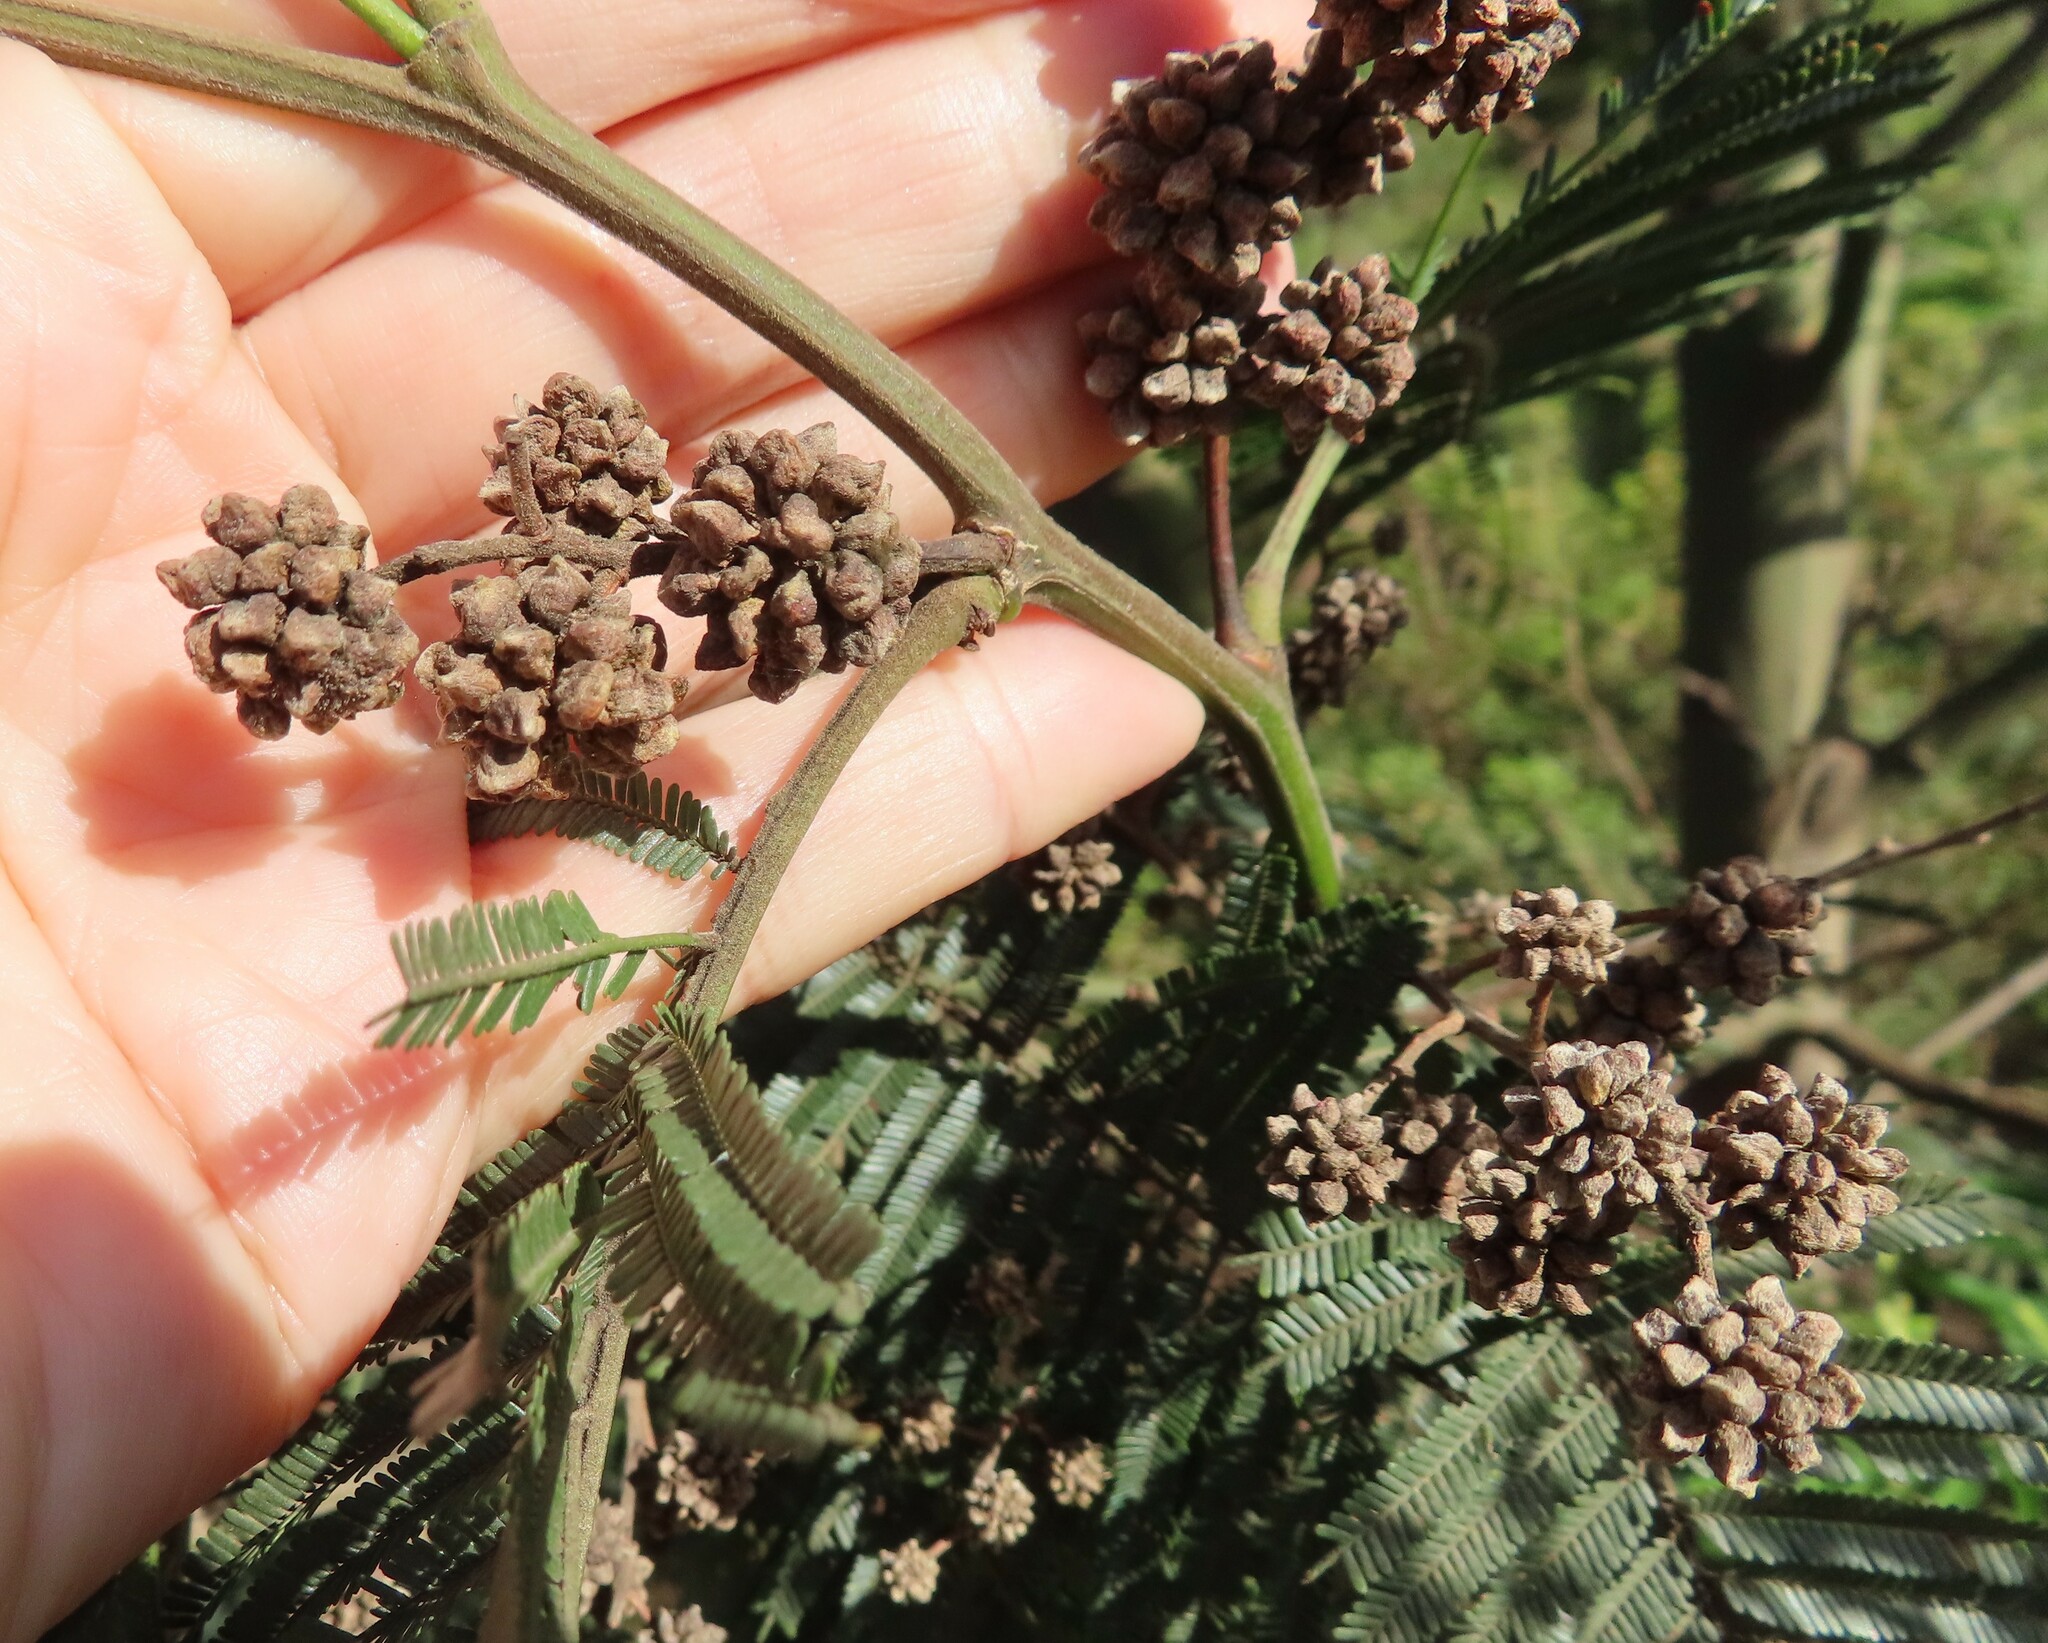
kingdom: Animalia
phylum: Arthropoda
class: Insecta
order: Diptera
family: Cecidomyiidae
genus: Dasineura
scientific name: Dasineura rubiformis
